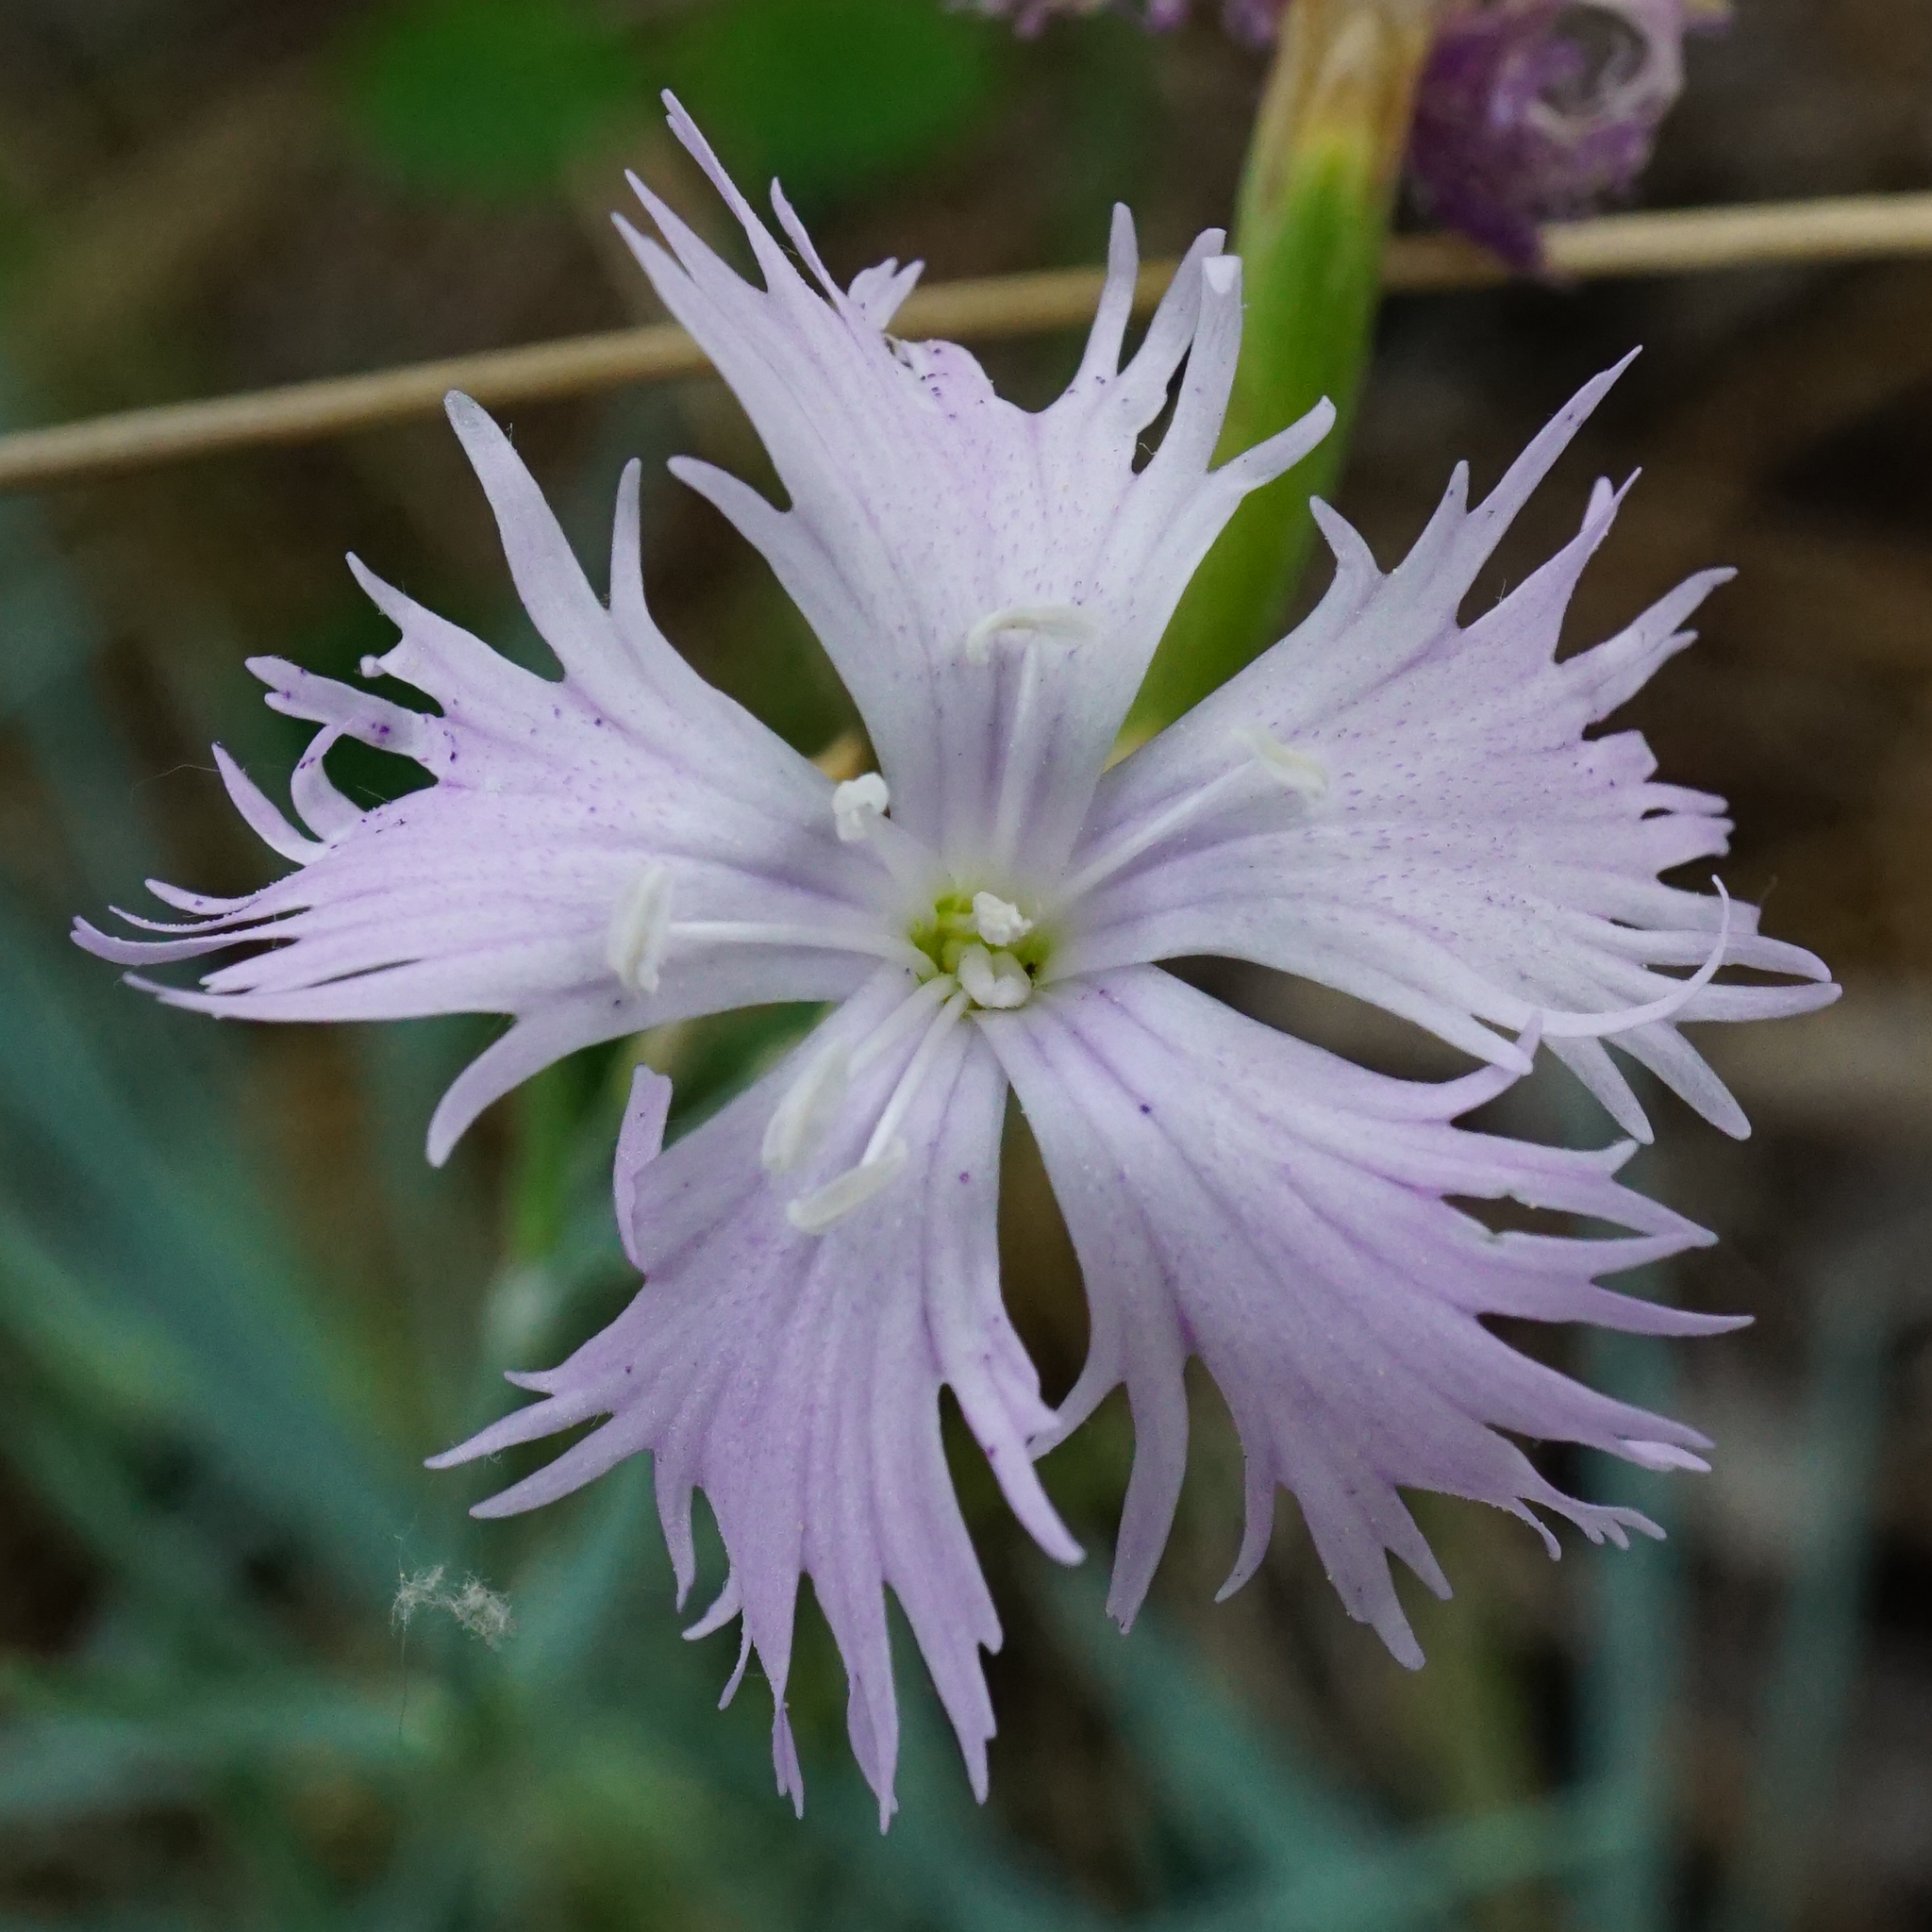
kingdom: Plantae
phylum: Tracheophyta
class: Magnoliopsida
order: Caryophyllales
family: Caryophyllaceae
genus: Dianthus
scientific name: Dianthus plumarius
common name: Pink
